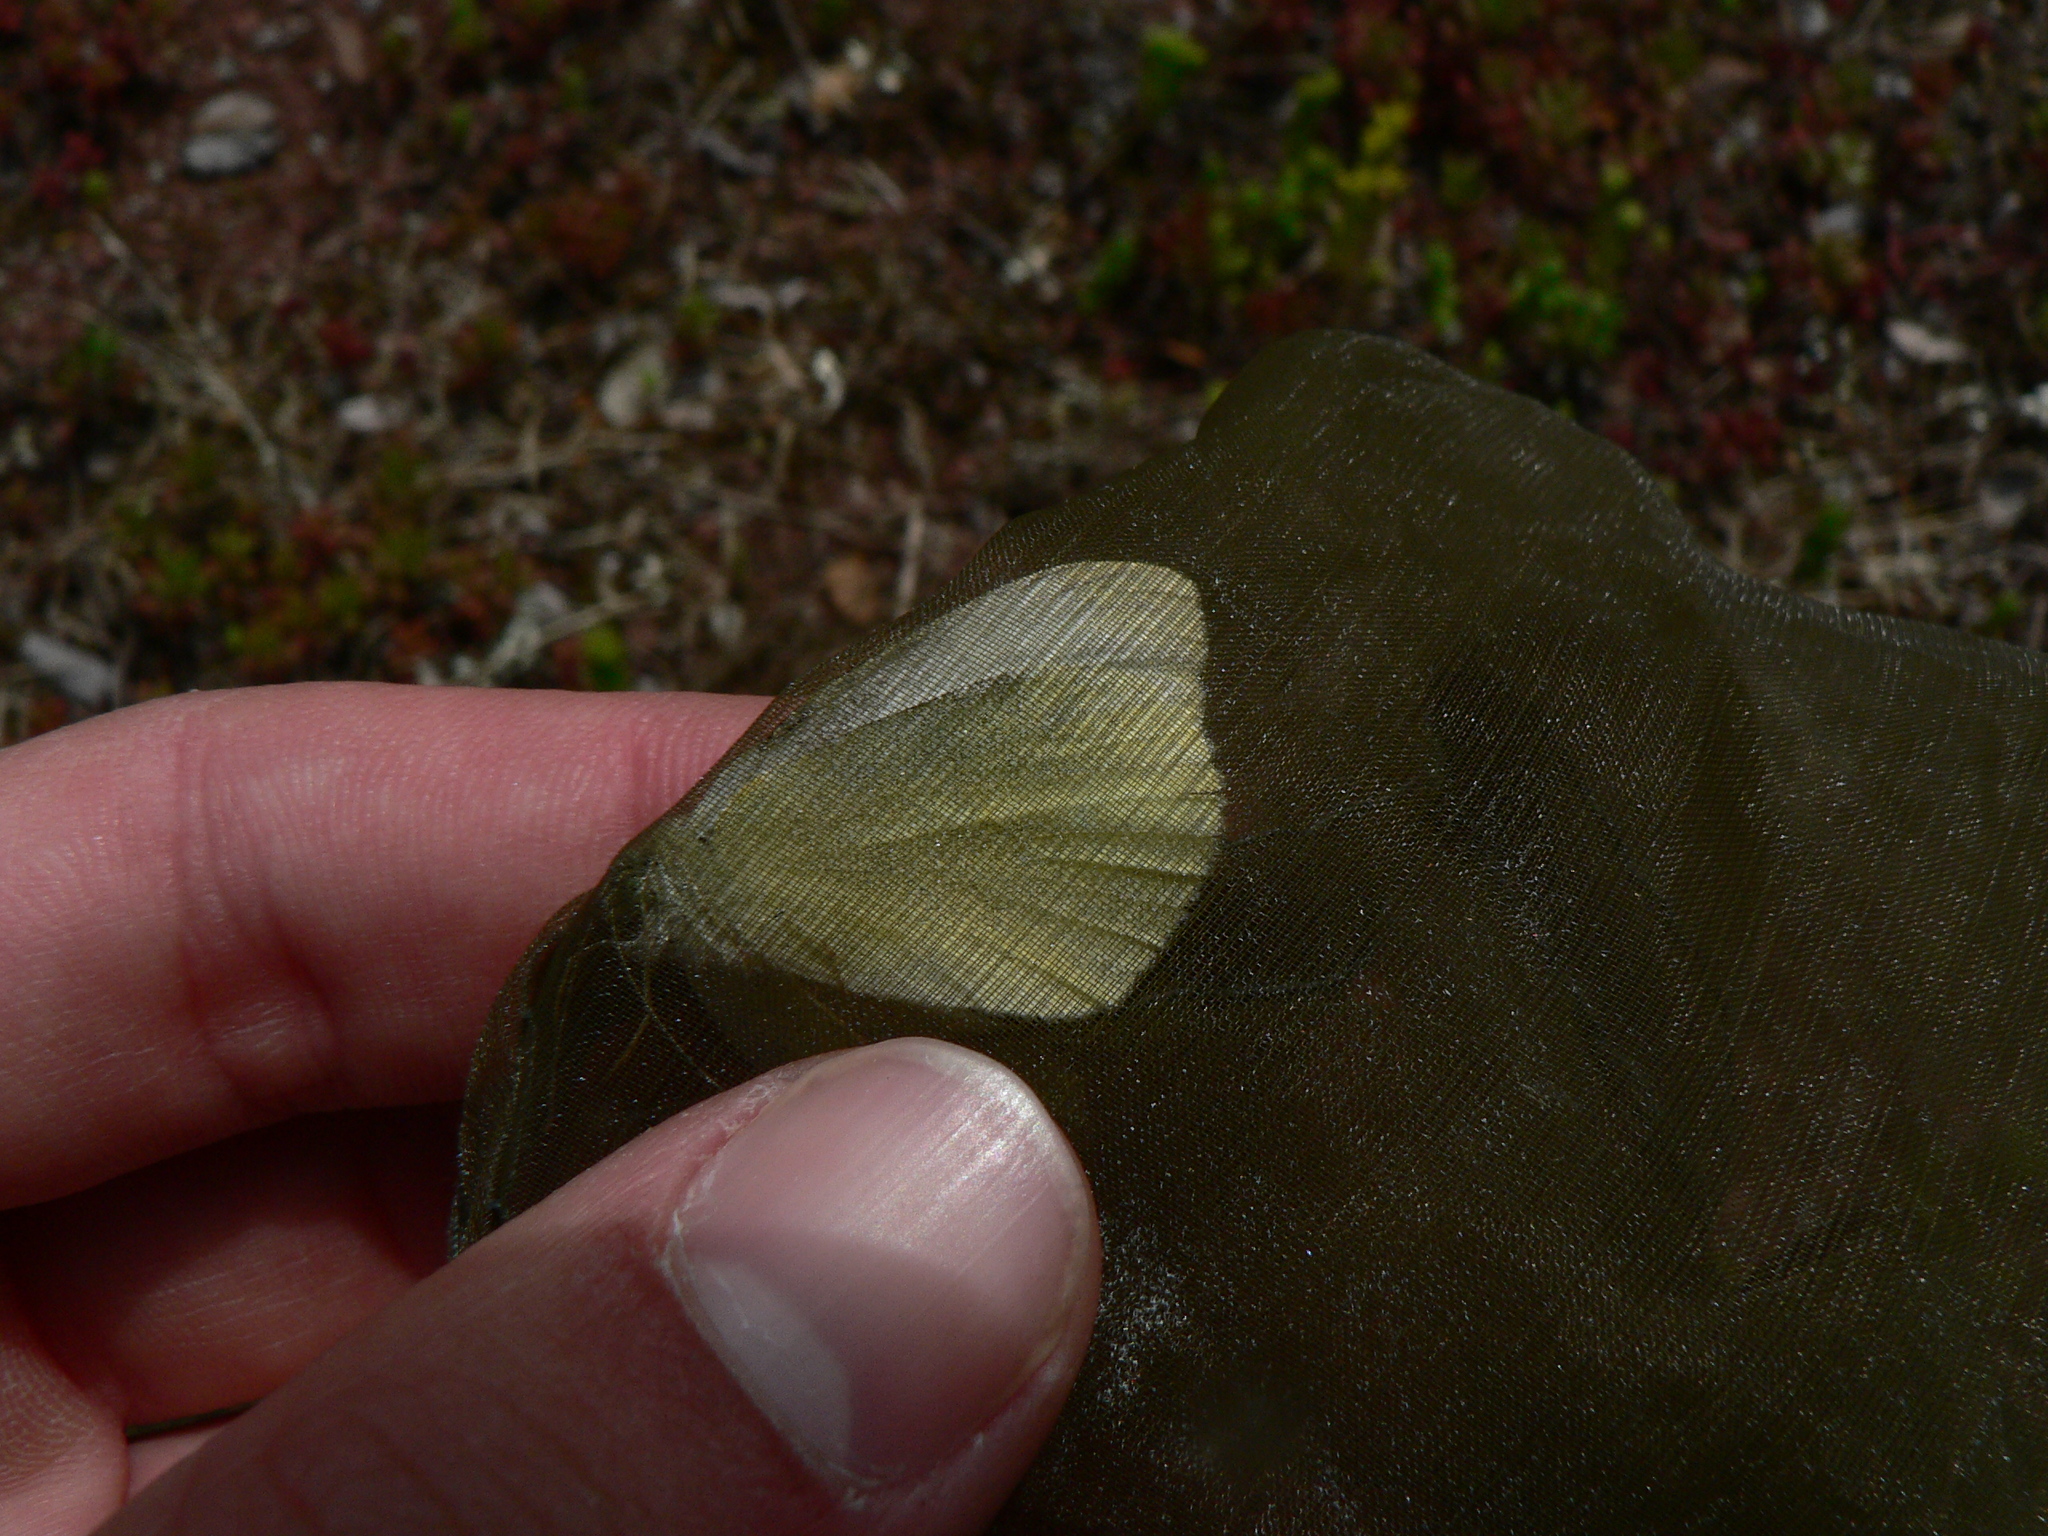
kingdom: Animalia
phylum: Arthropoda
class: Insecta
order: Lepidoptera
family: Pieridae
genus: Pieris
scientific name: Pieris rapae
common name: Small white
